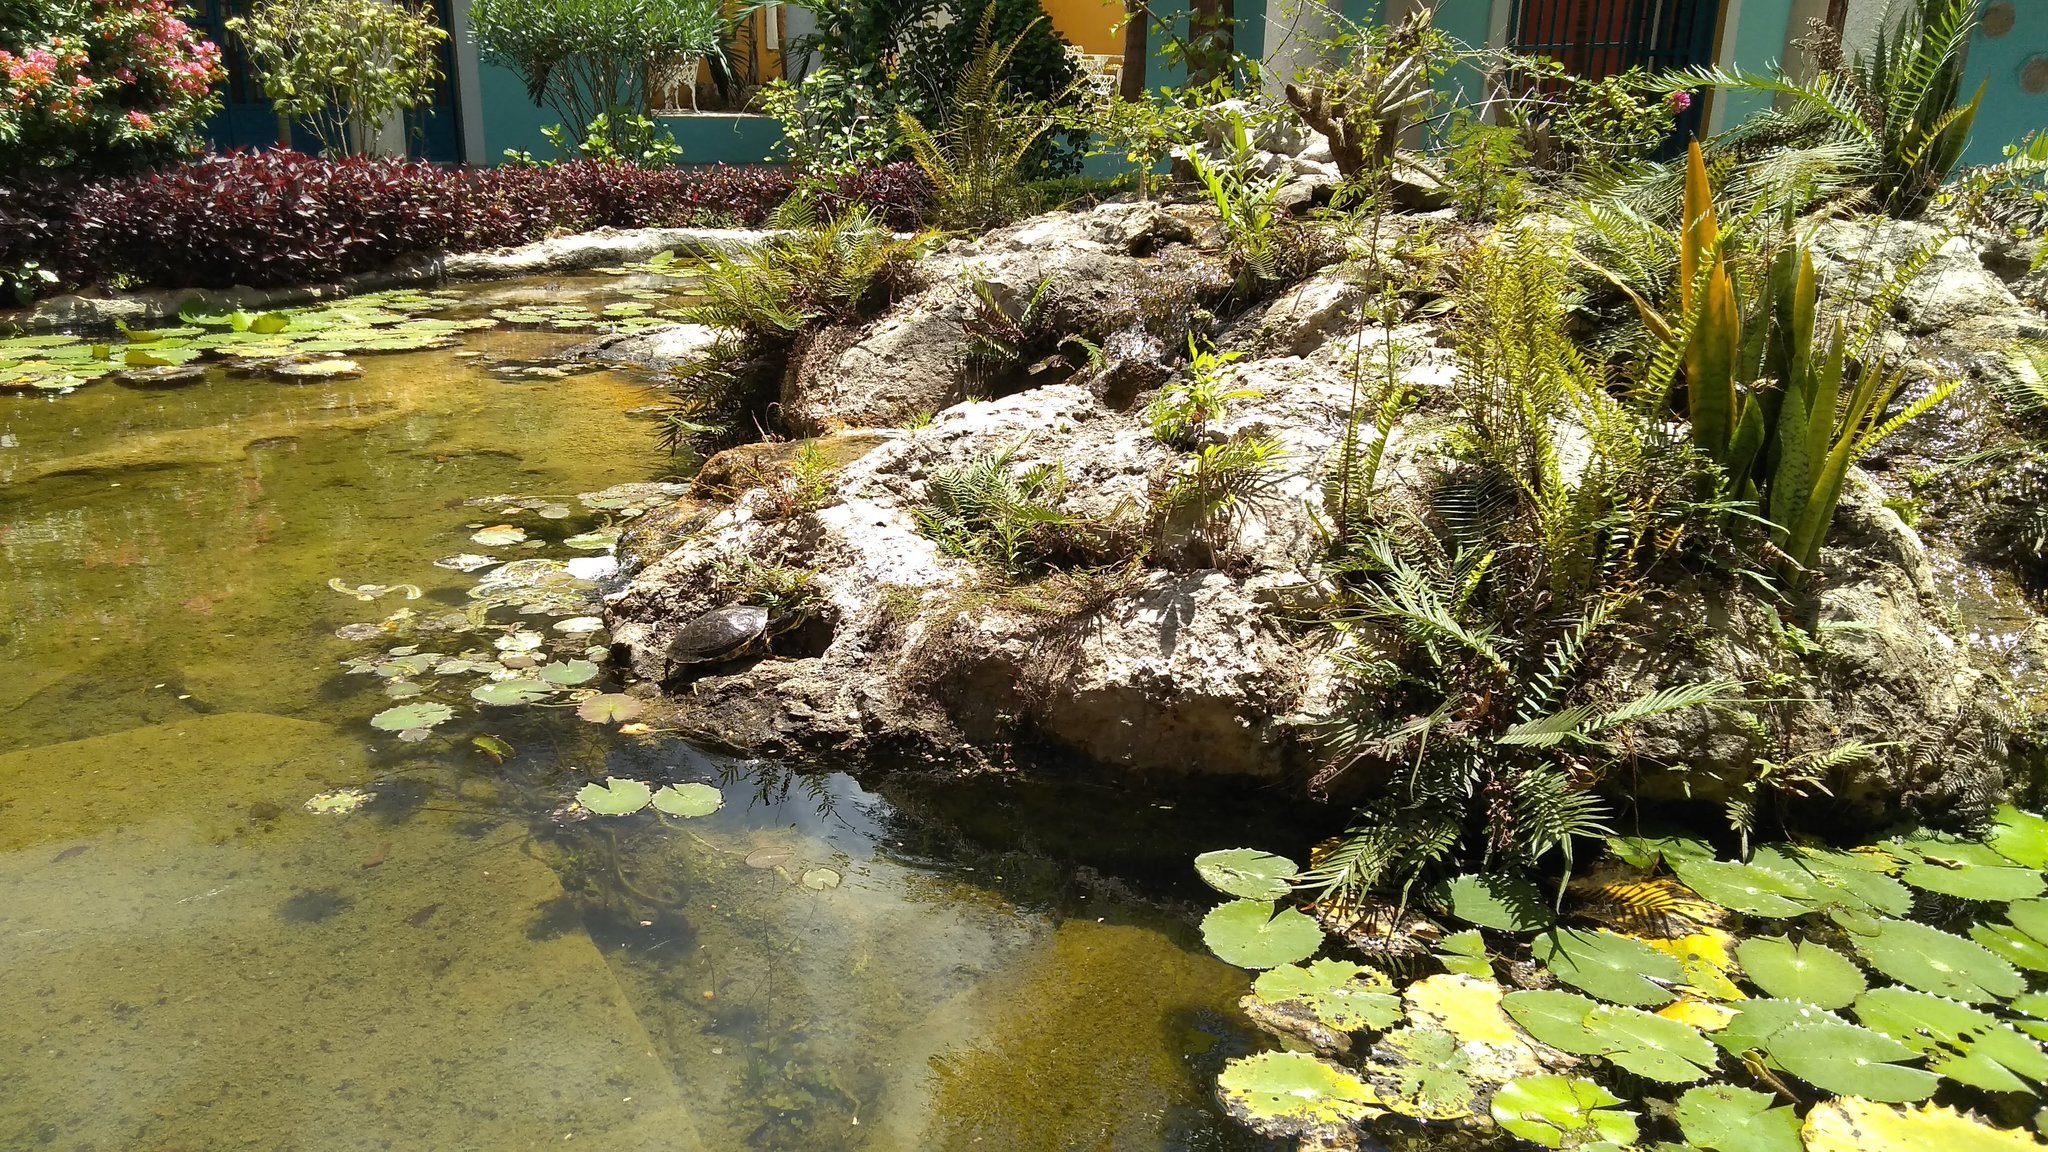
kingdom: Animalia
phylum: Chordata
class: Testudines
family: Emydidae
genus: Trachemys
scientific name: Trachemys venusta
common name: Mesoamerican slider
